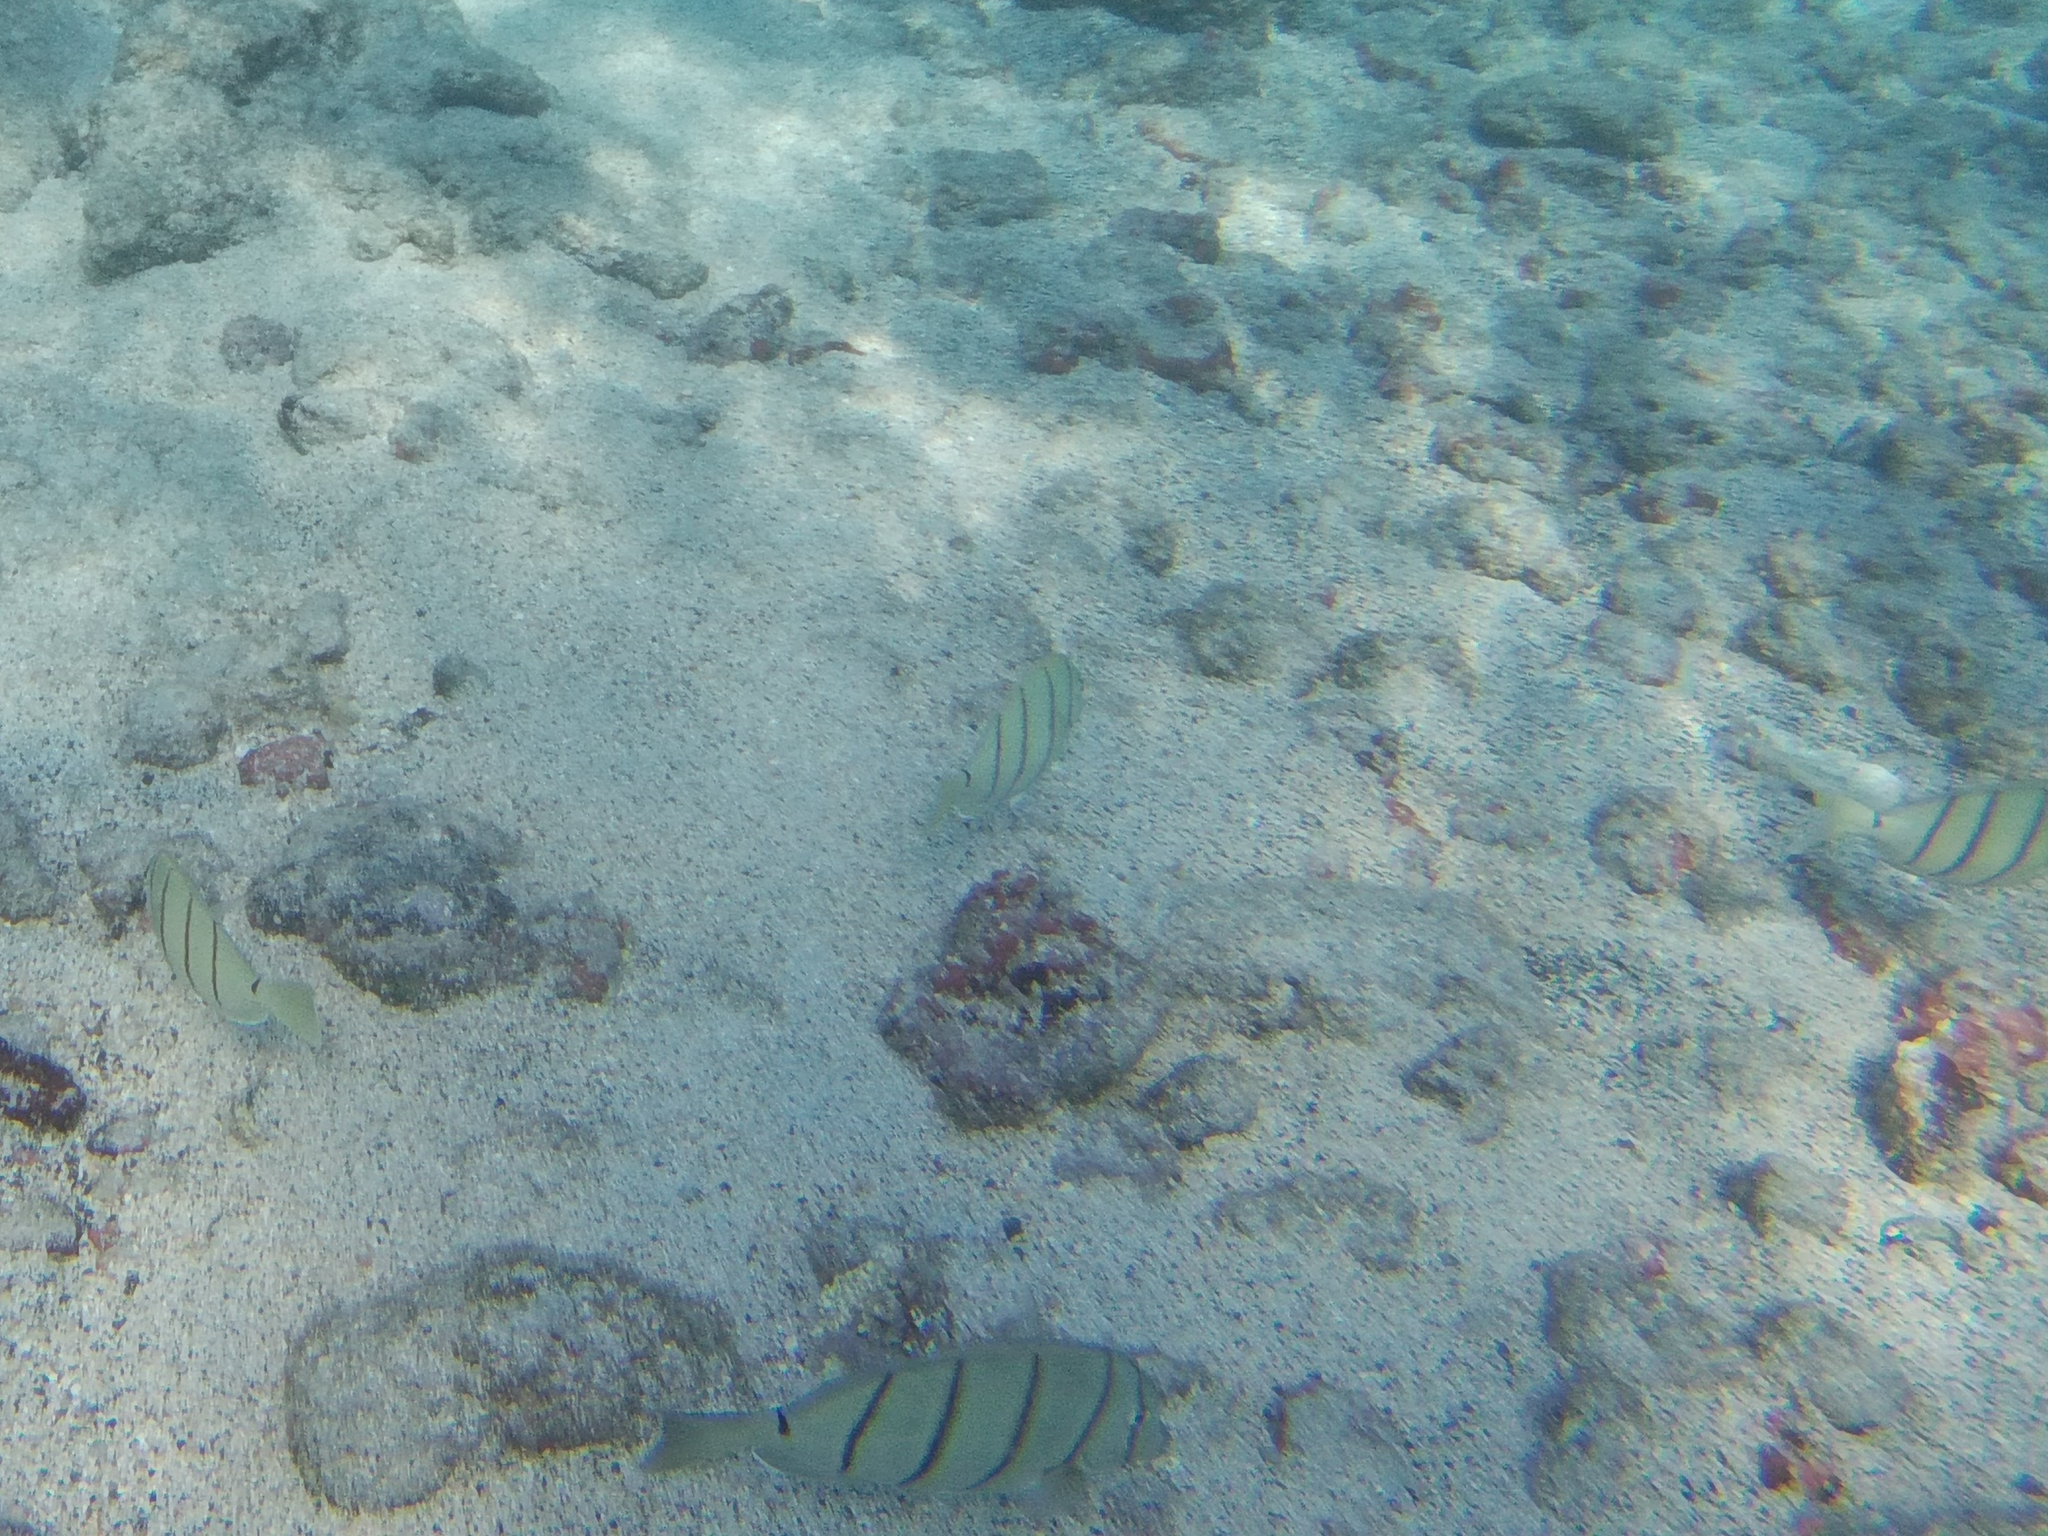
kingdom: Animalia
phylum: Chordata
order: Perciformes
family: Acanthuridae
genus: Acanthurus
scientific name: Acanthurus triostegus
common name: Convict surgeonfish
